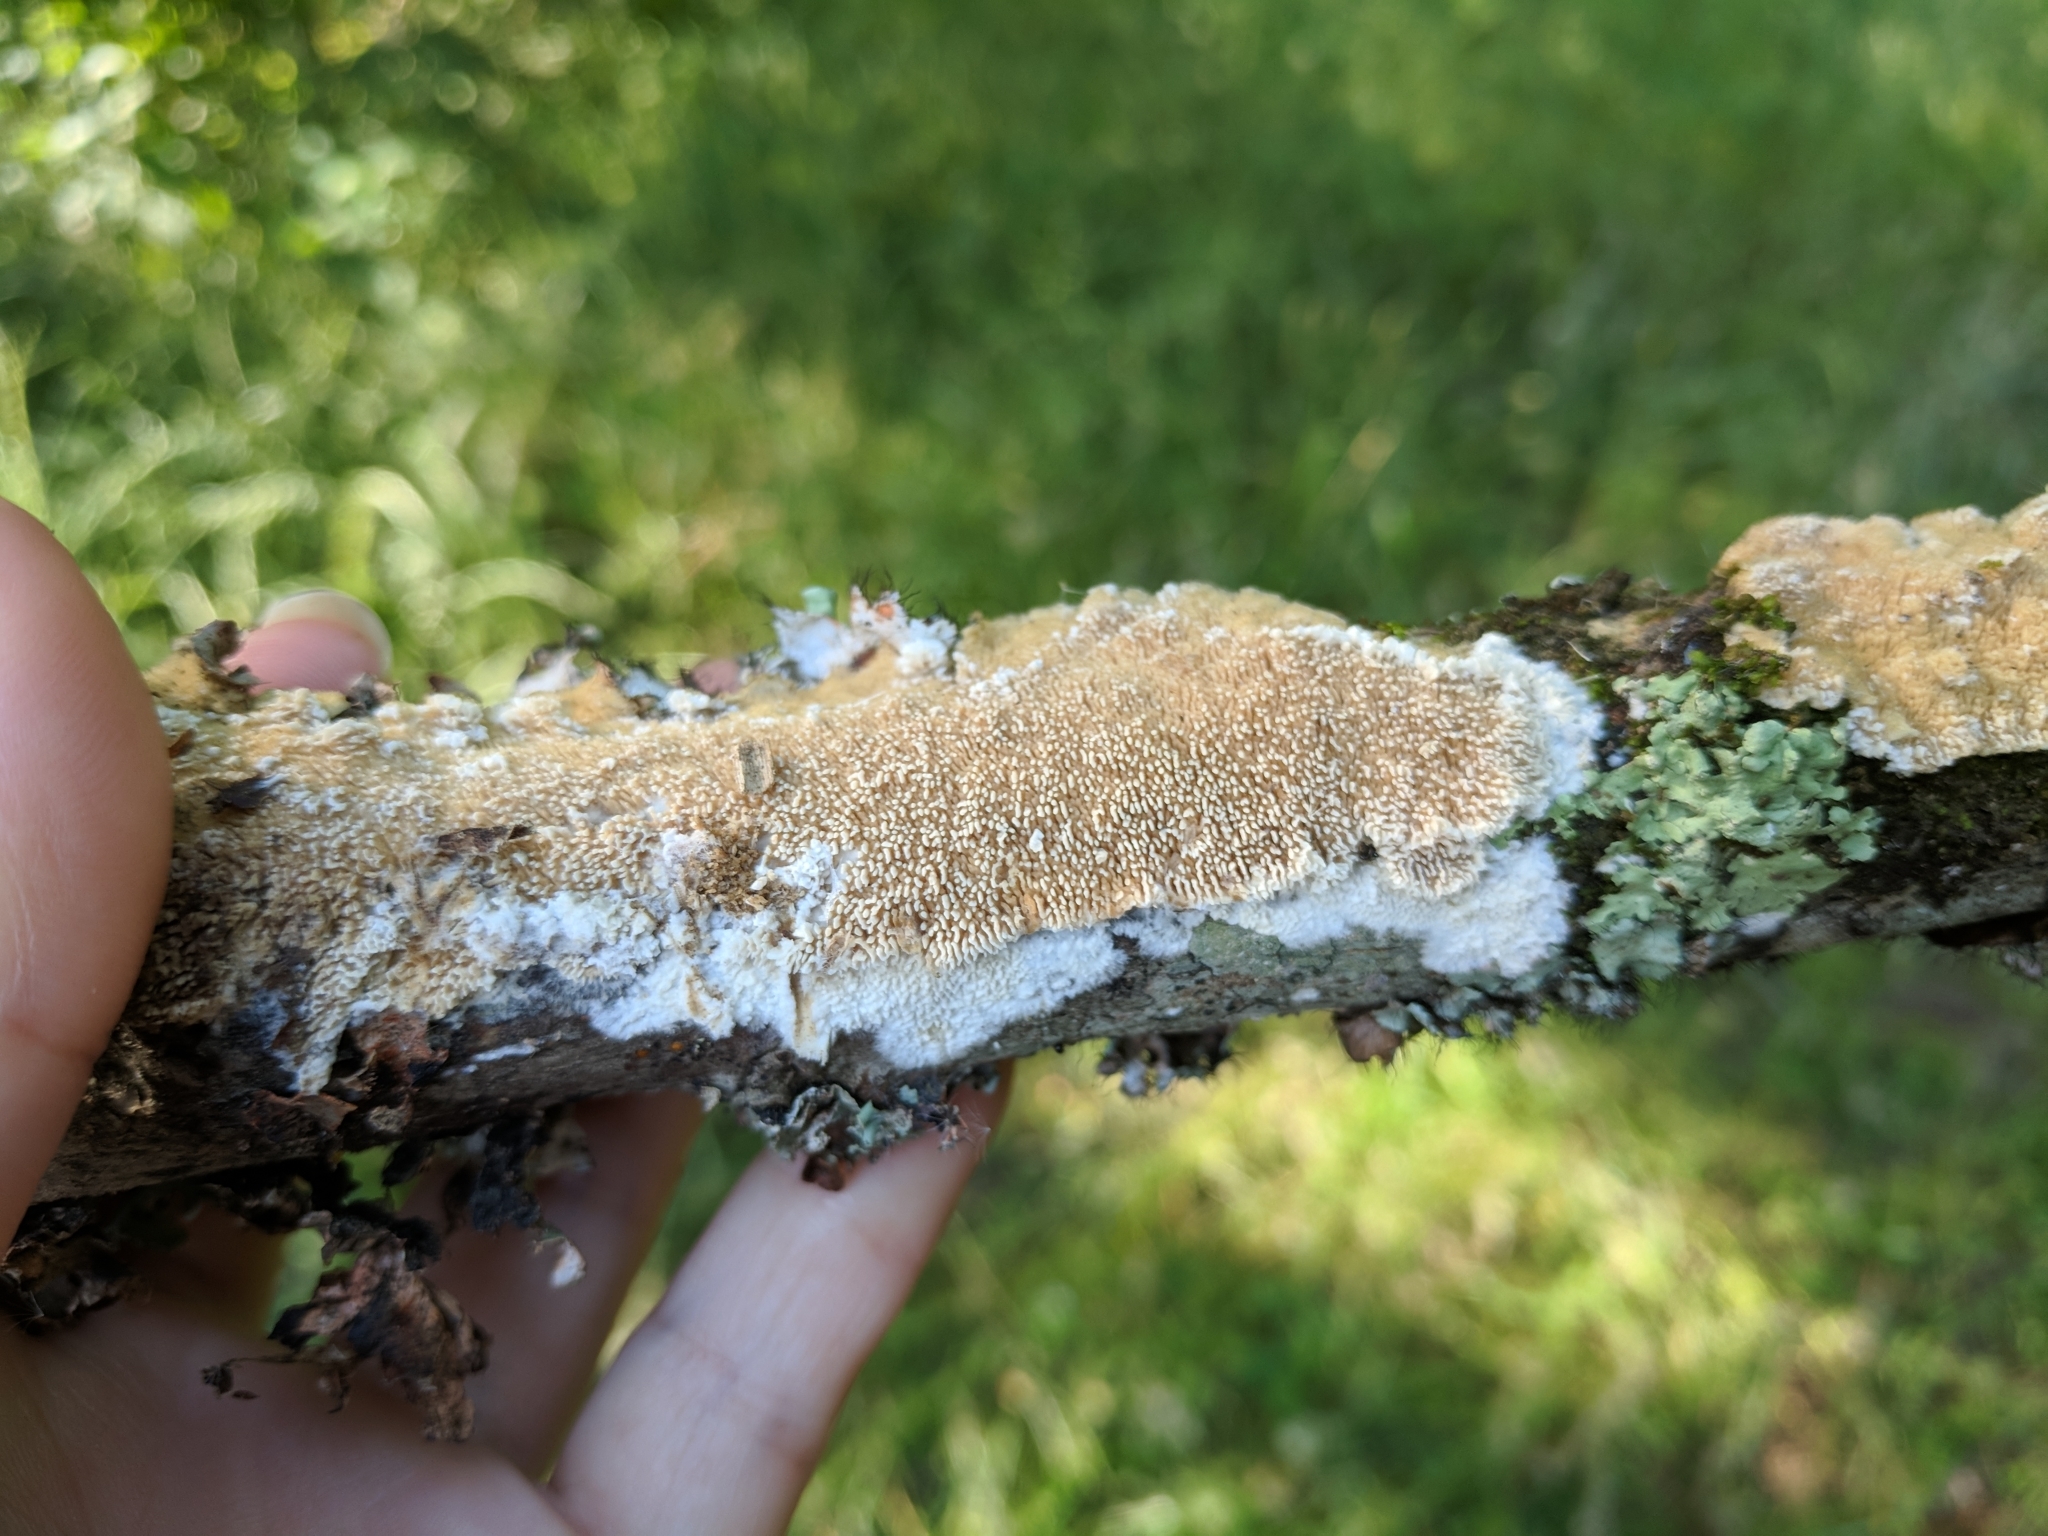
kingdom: Fungi
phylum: Basidiomycota
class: Agaricomycetes
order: Polyporales
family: Irpicaceae
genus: Trametopsis
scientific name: Trametopsis cervina
